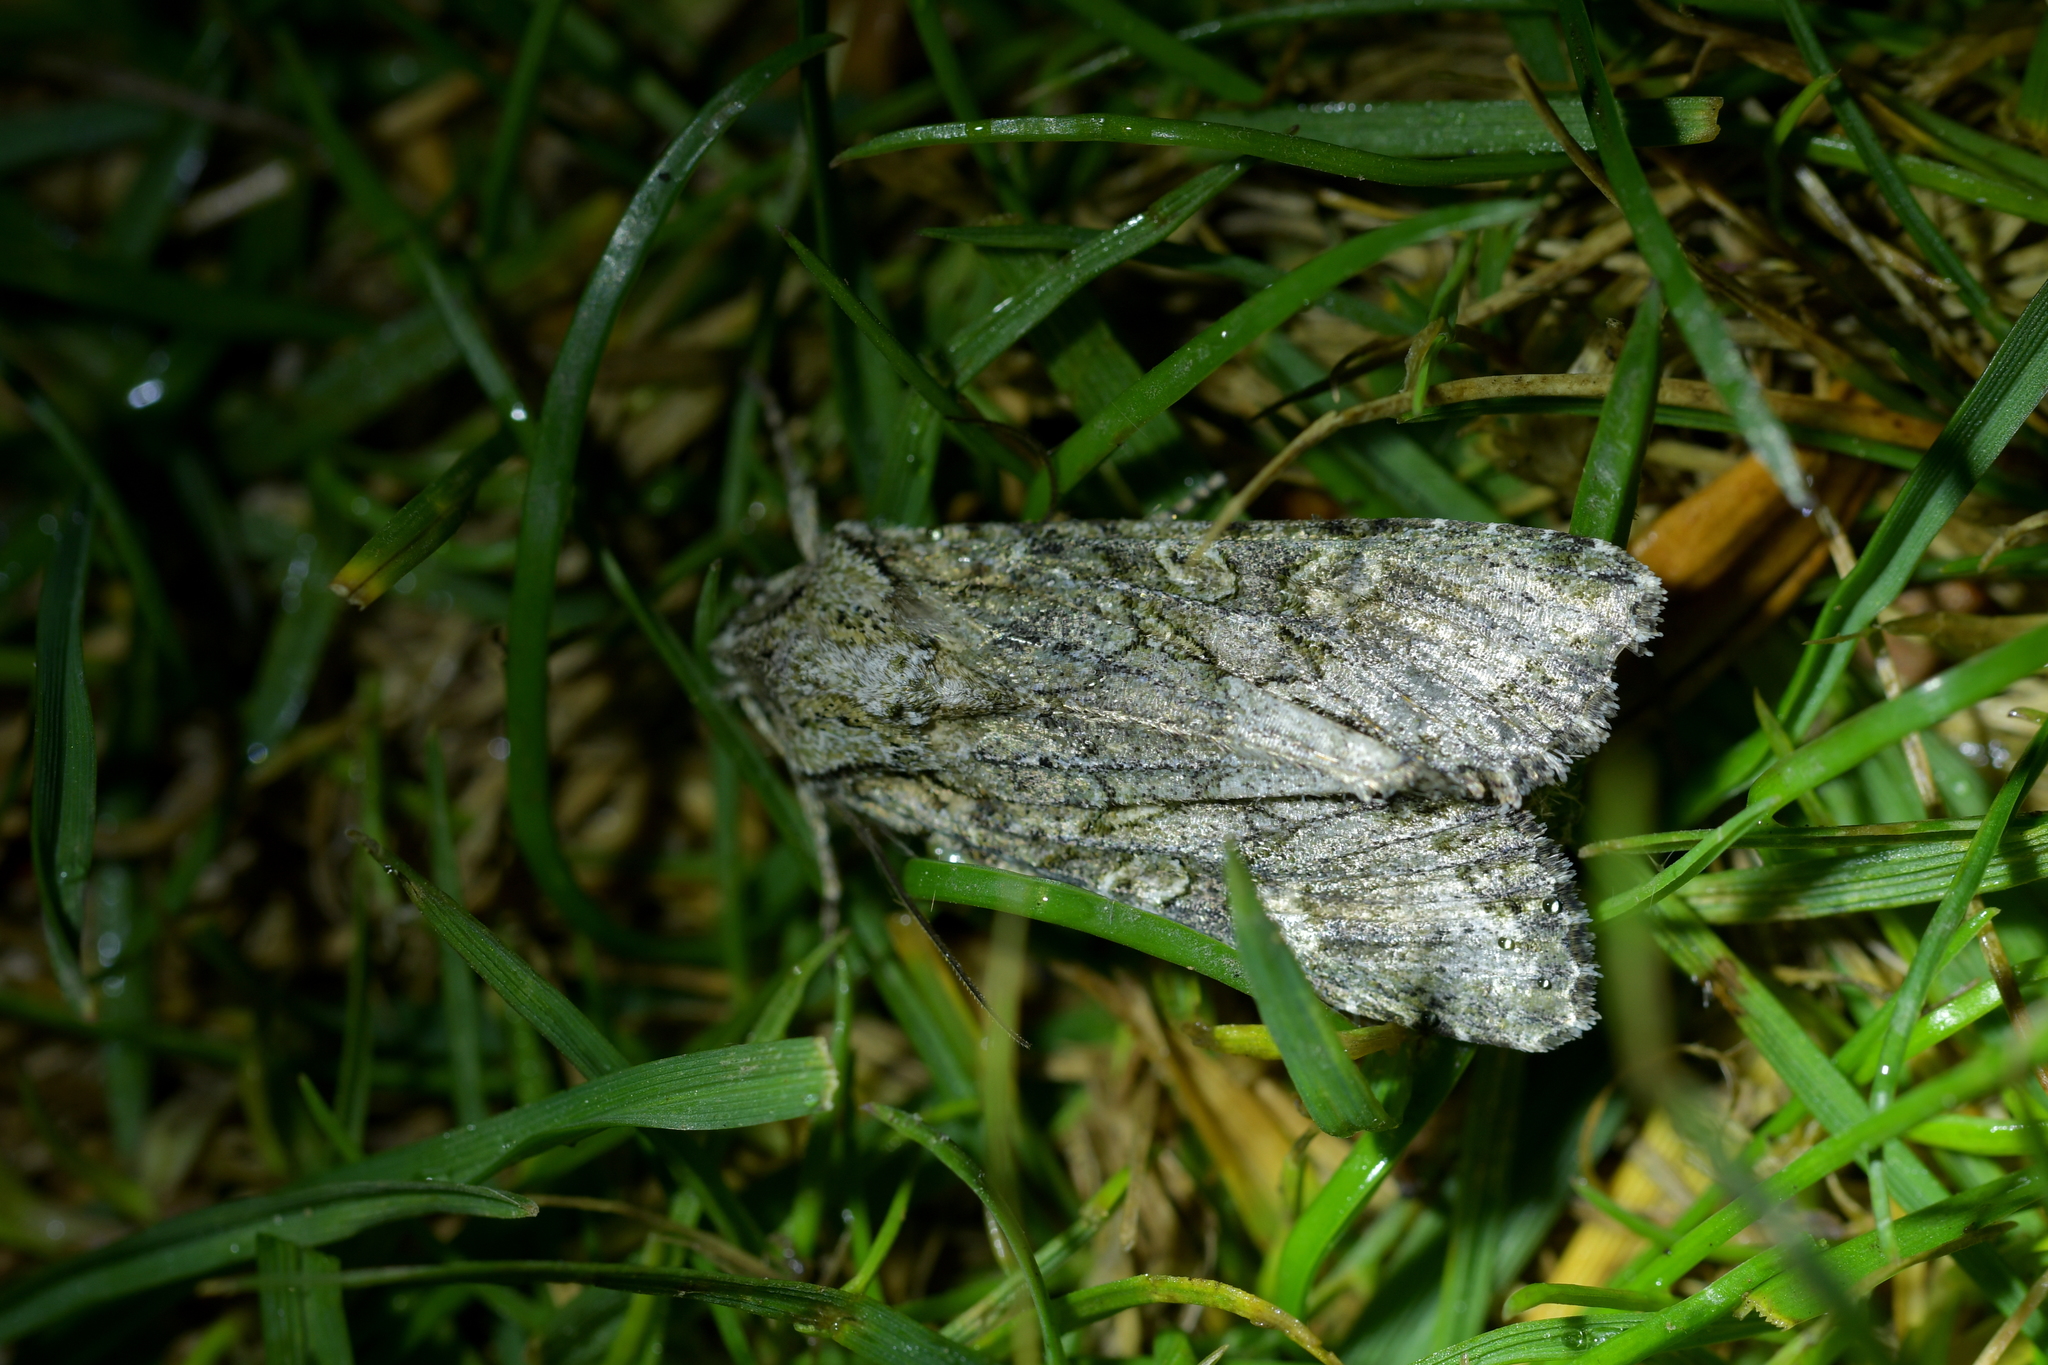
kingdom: Animalia
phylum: Arthropoda
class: Insecta
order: Lepidoptera
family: Noctuidae
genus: Ichneutica
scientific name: Ichneutica mutans
